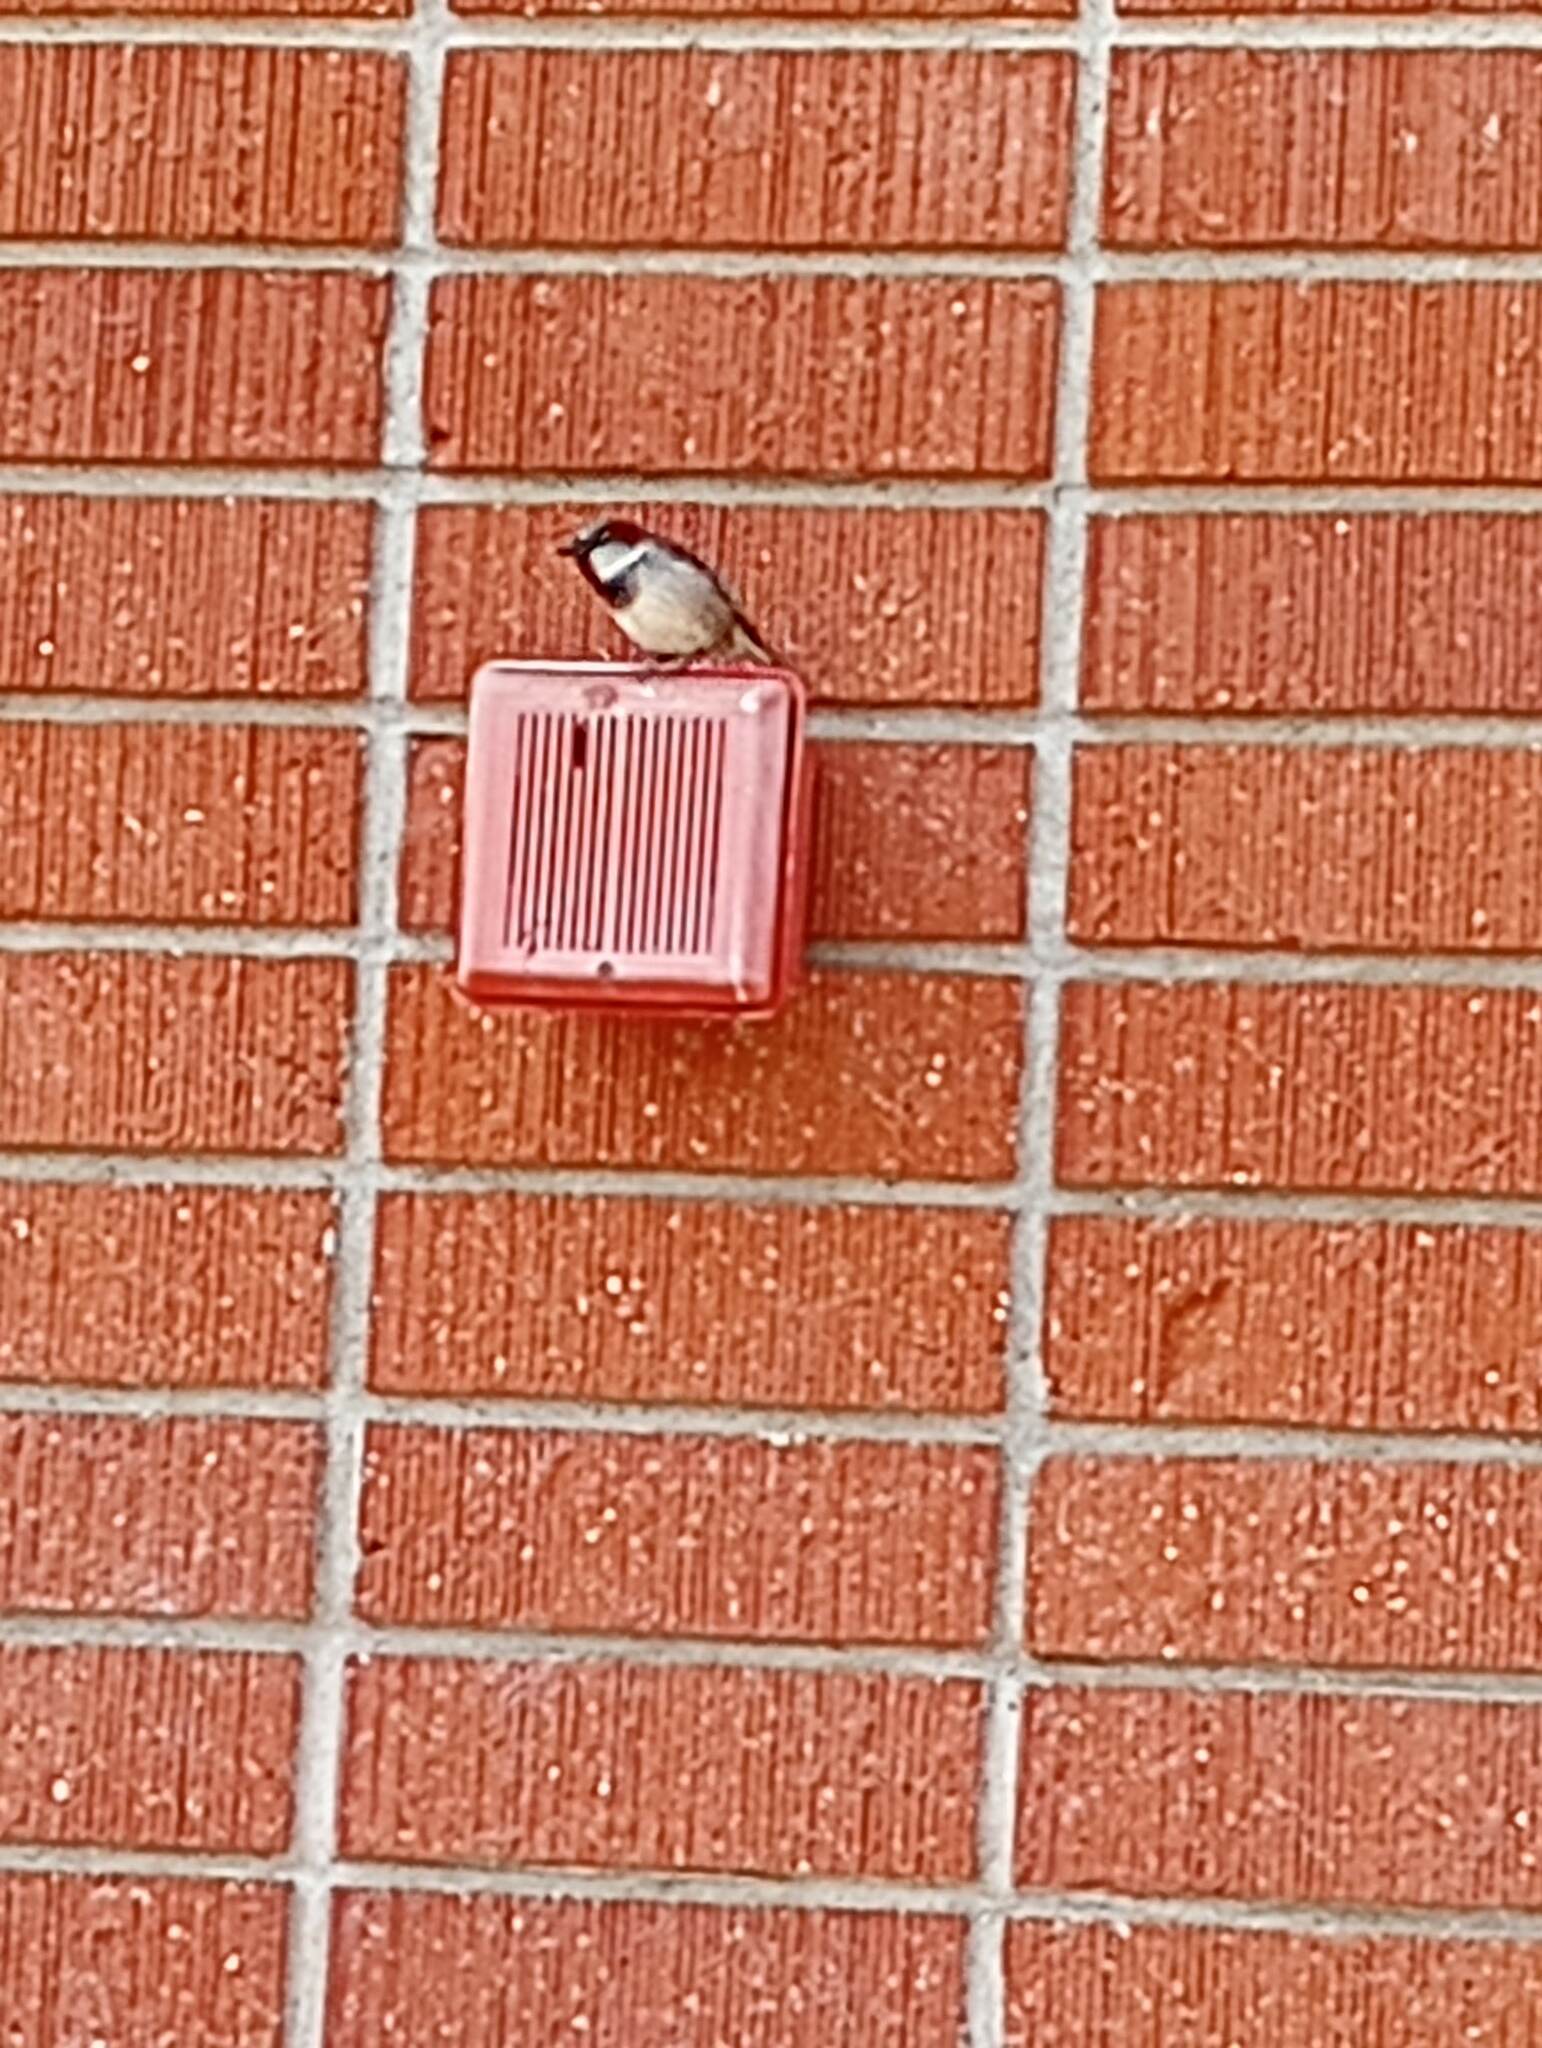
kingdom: Animalia
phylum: Chordata
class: Aves
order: Passeriformes
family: Passeridae
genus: Passer
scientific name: Passer domesticus
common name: House sparrow
